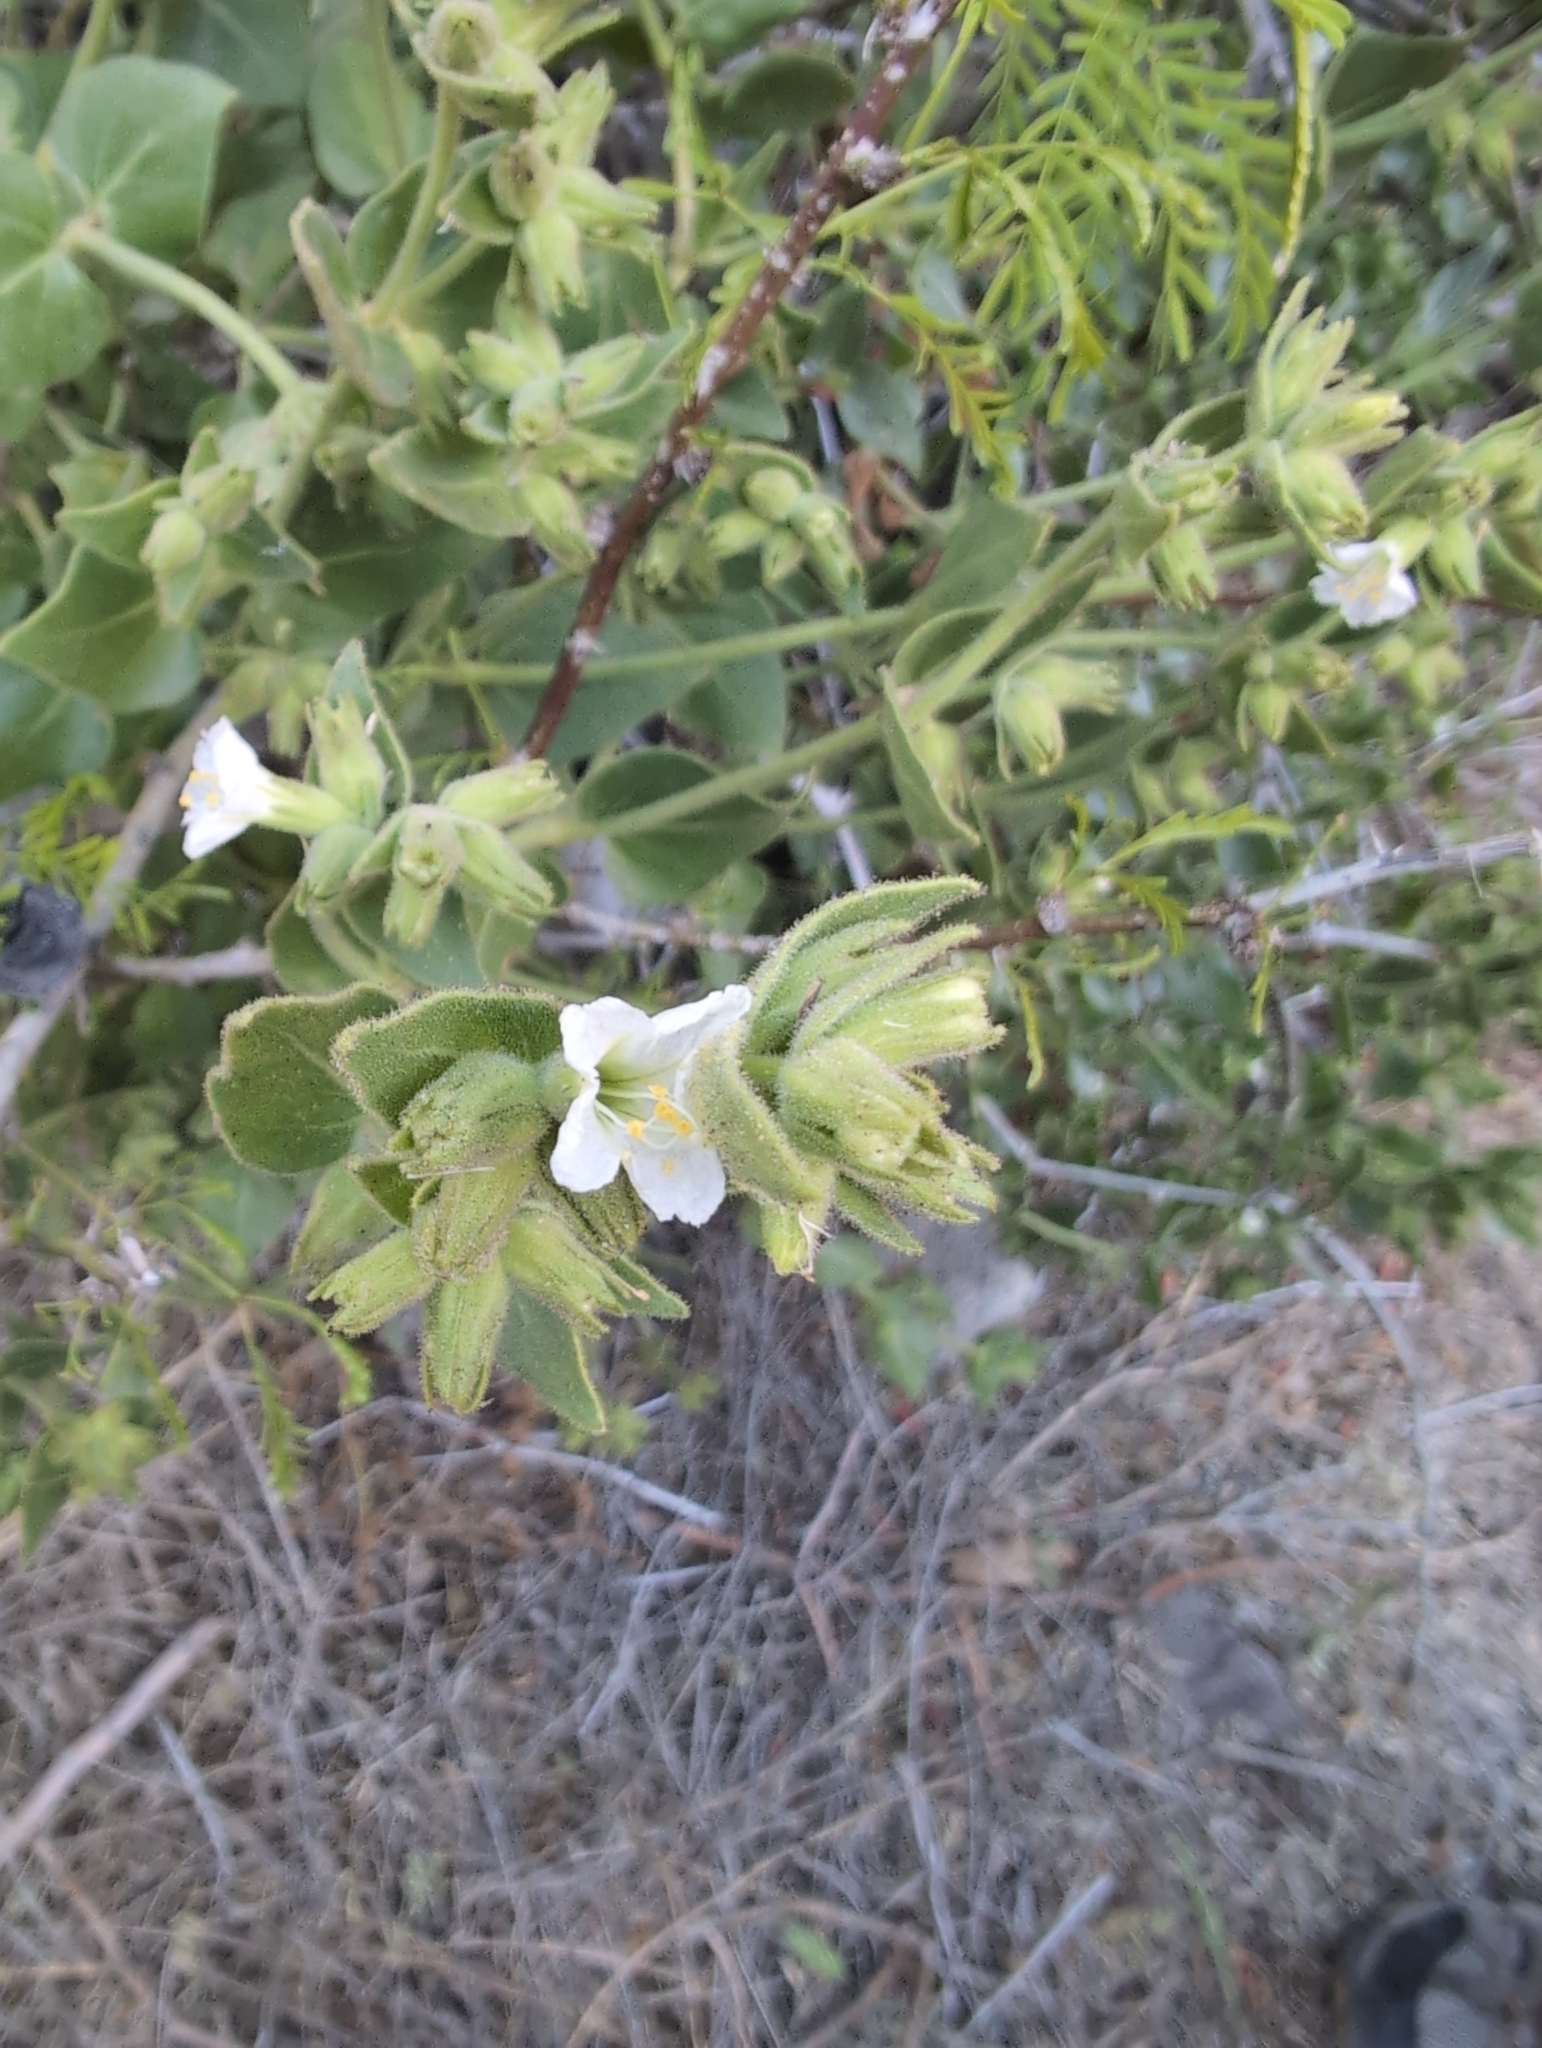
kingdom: Plantae
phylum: Tracheophyta
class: Magnoliopsida
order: Caryophyllales
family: Nyctaginaceae
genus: Mirabilis
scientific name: Mirabilis tenuiloba
